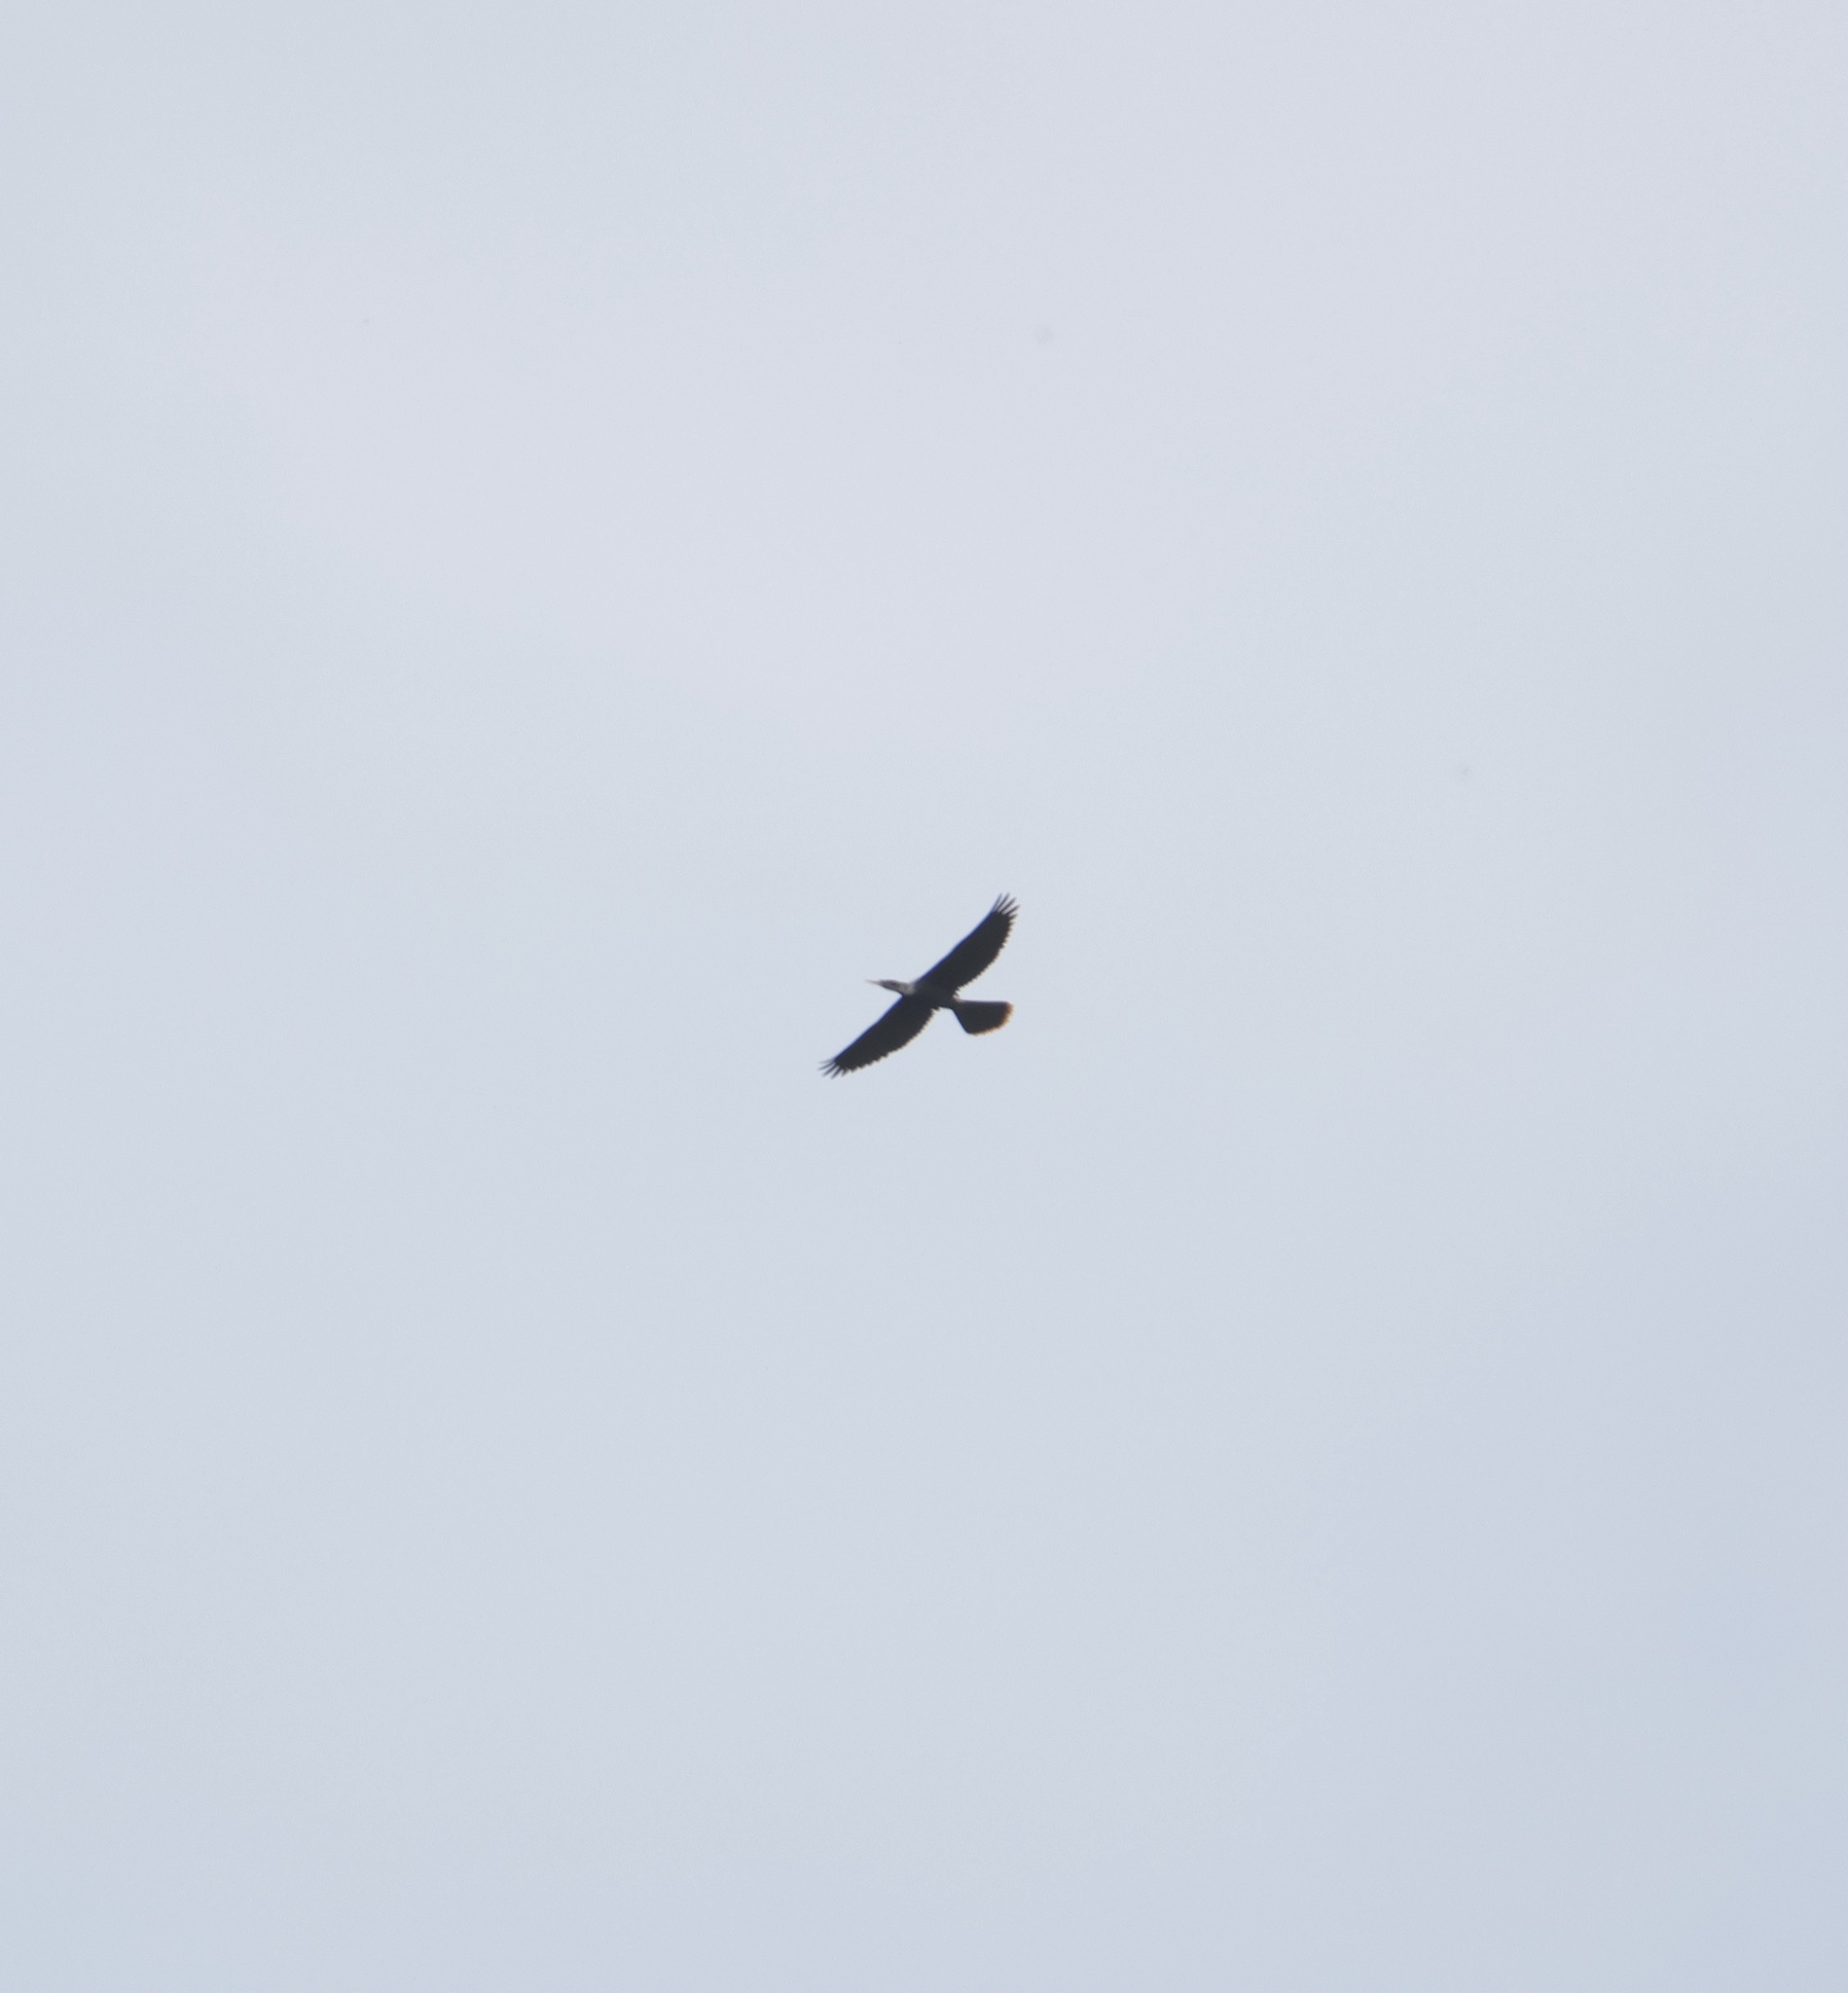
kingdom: Animalia
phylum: Chordata
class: Aves
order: Suliformes
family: Anhingidae
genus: Anhinga
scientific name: Anhinga anhinga
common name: Anhinga
